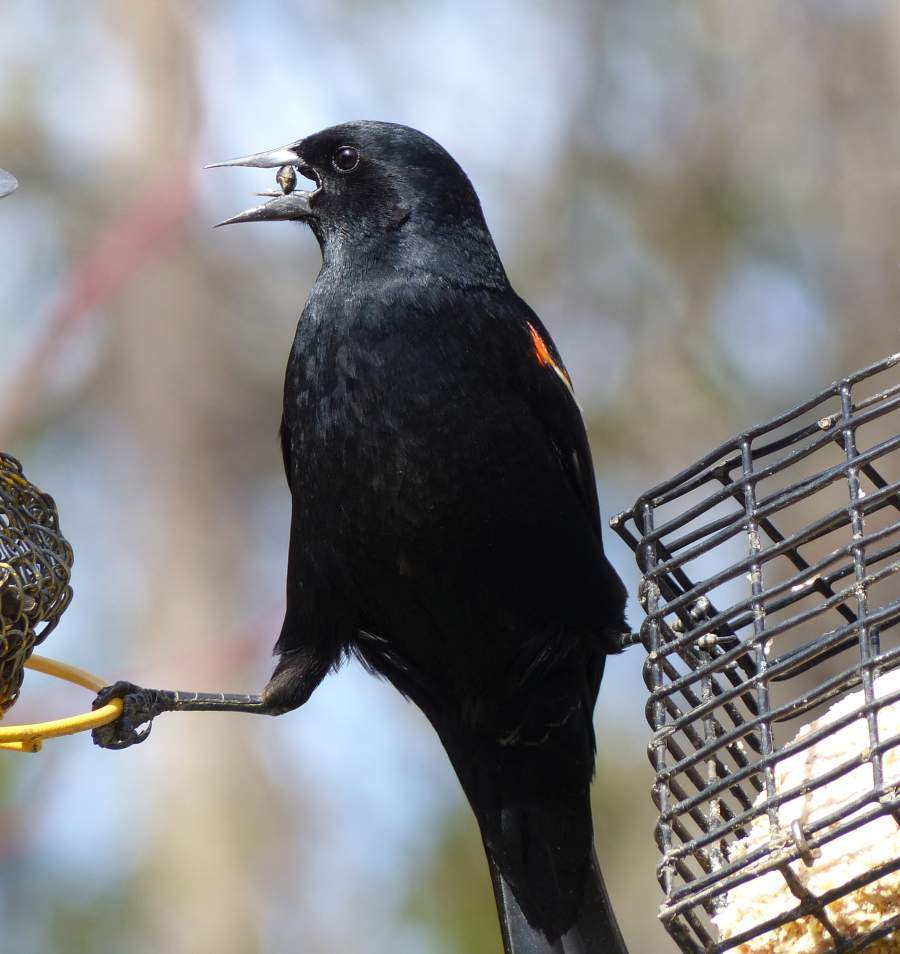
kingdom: Animalia
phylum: Chordata
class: Aves
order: Passeriformes
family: Icteridae
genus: Agelaius
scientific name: Agelaius phoeniceus
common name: Red-winged blackbird
